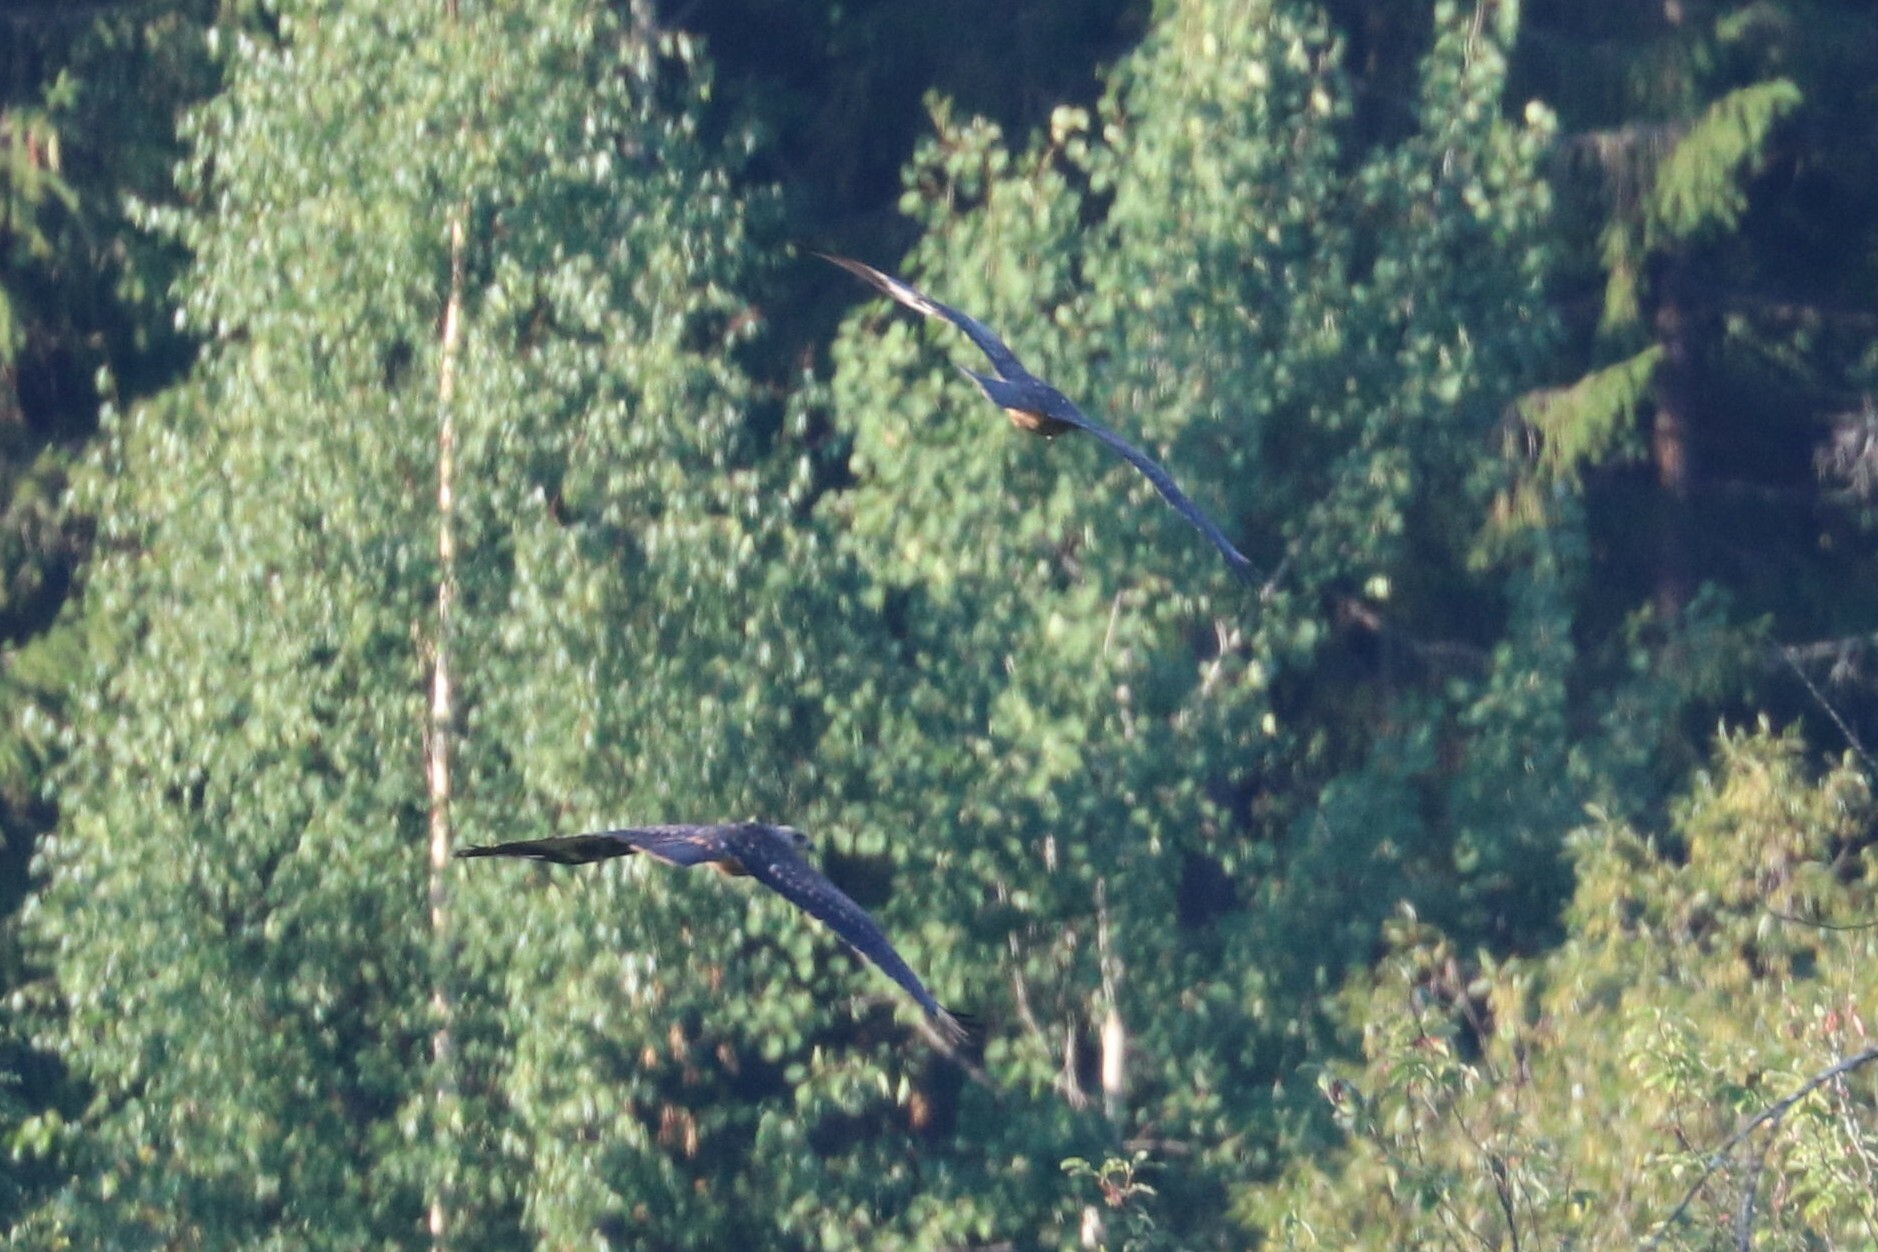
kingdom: Animalia
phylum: Chordata
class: Aves
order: Accipitriformes
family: Accipitridae
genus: Milvus
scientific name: Milvus migrans
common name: Black kite
